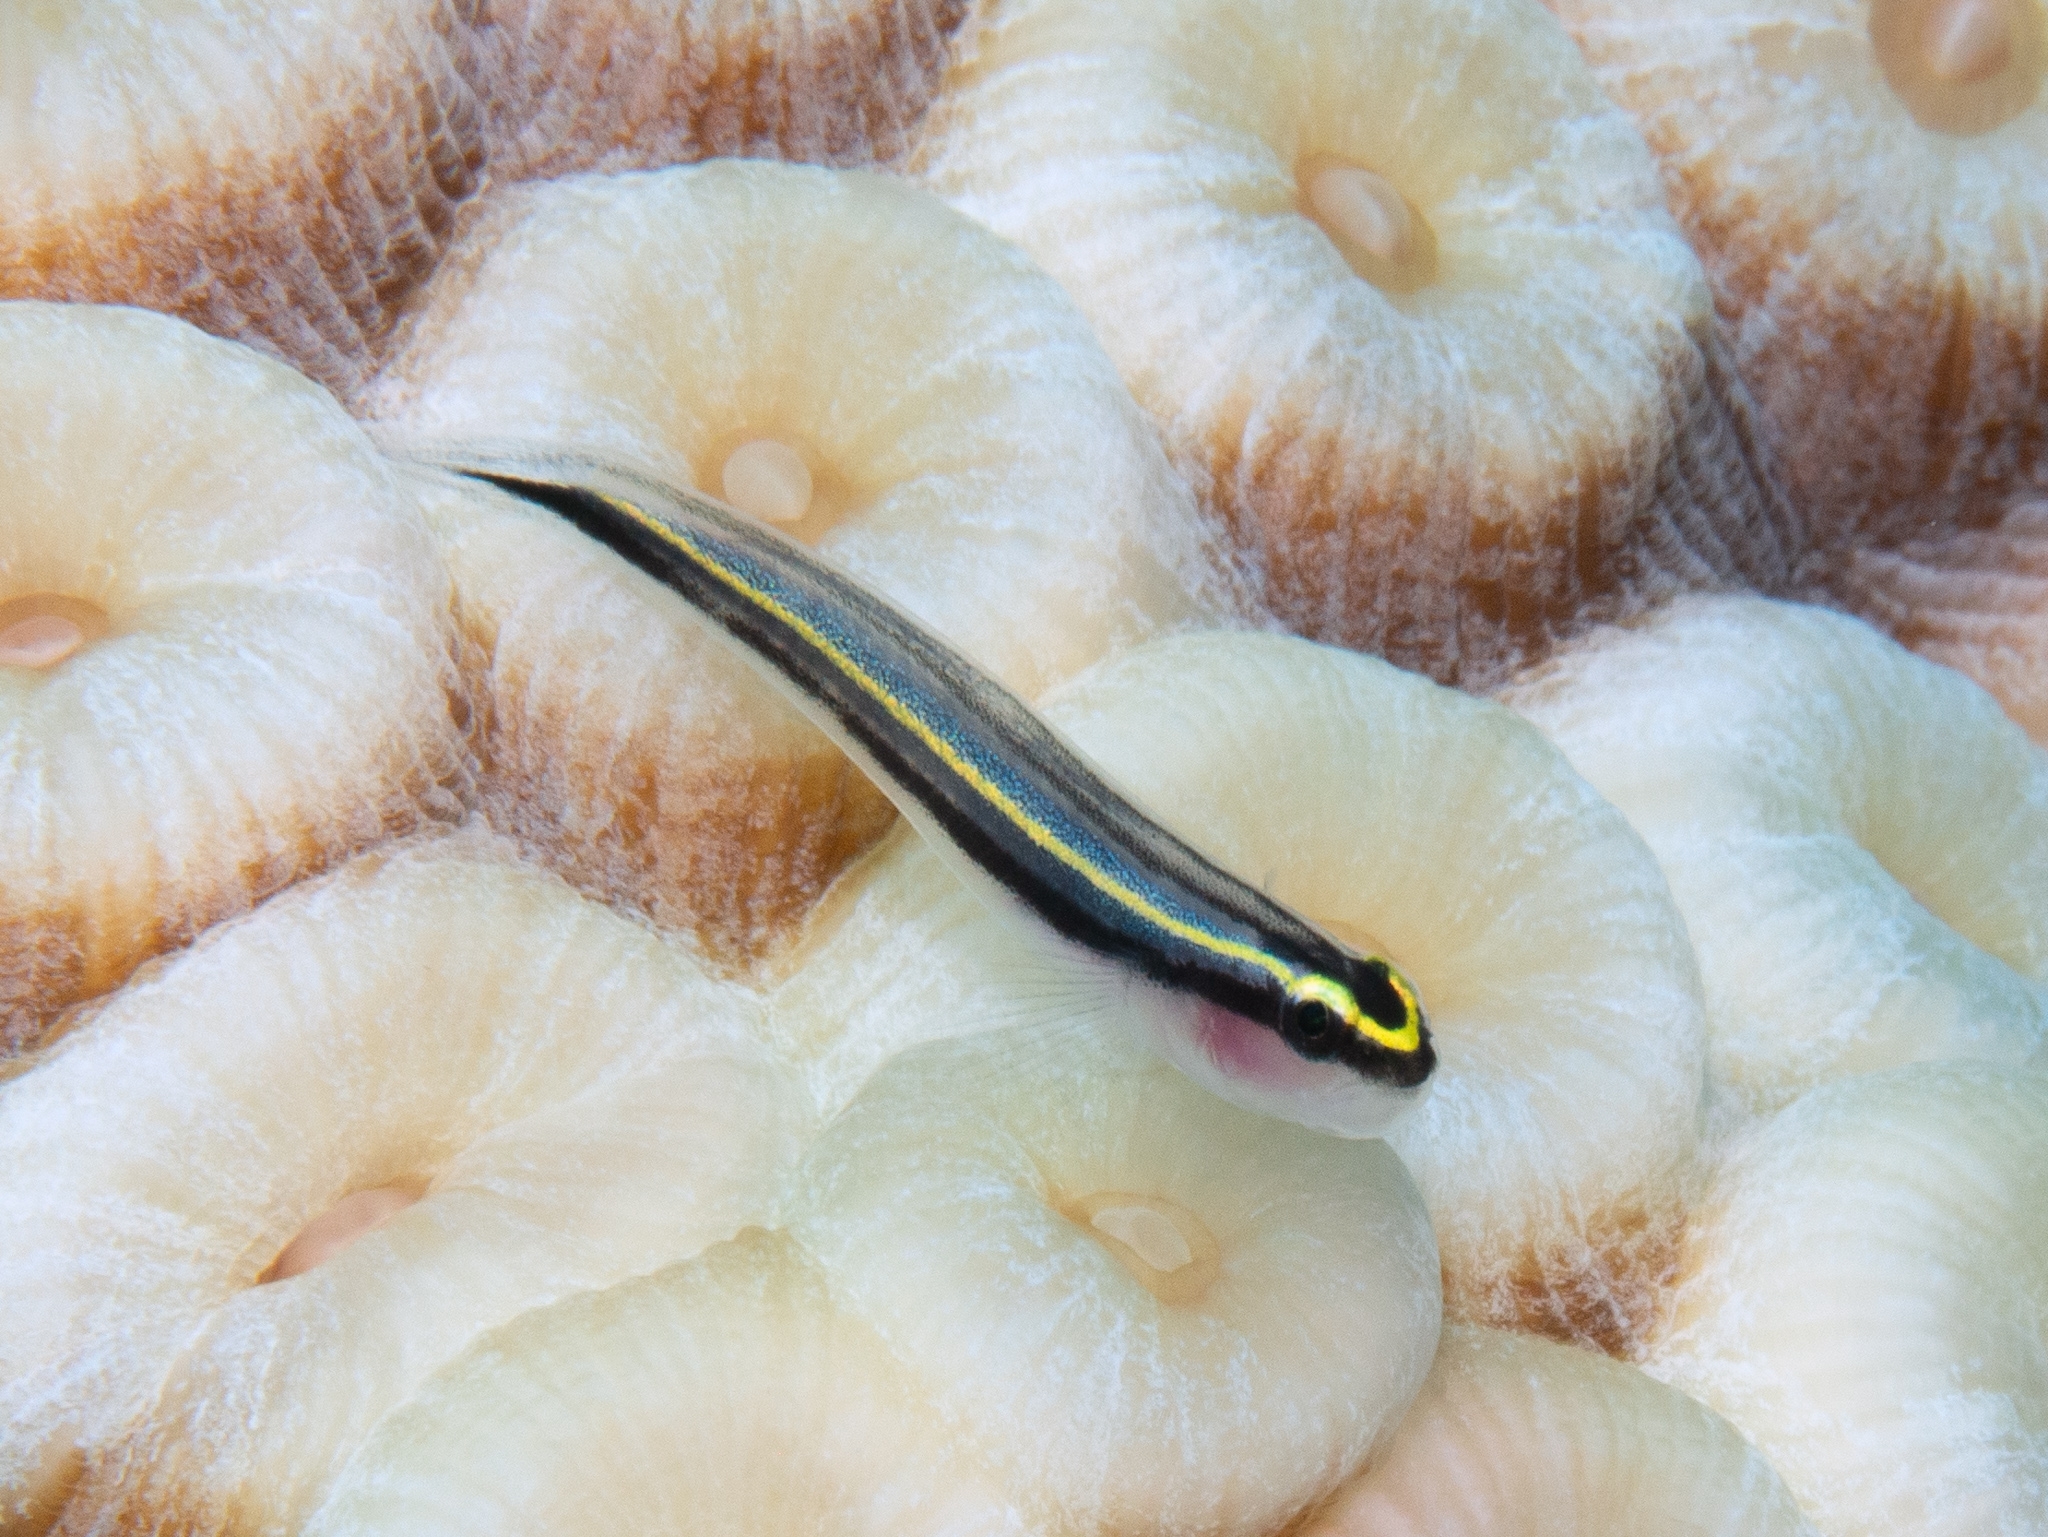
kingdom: Animalia
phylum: Chordata
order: Perciformes
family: Gobiidae
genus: Elacatinus
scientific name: Elacatinus cayman
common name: Cayman cleaner goby
